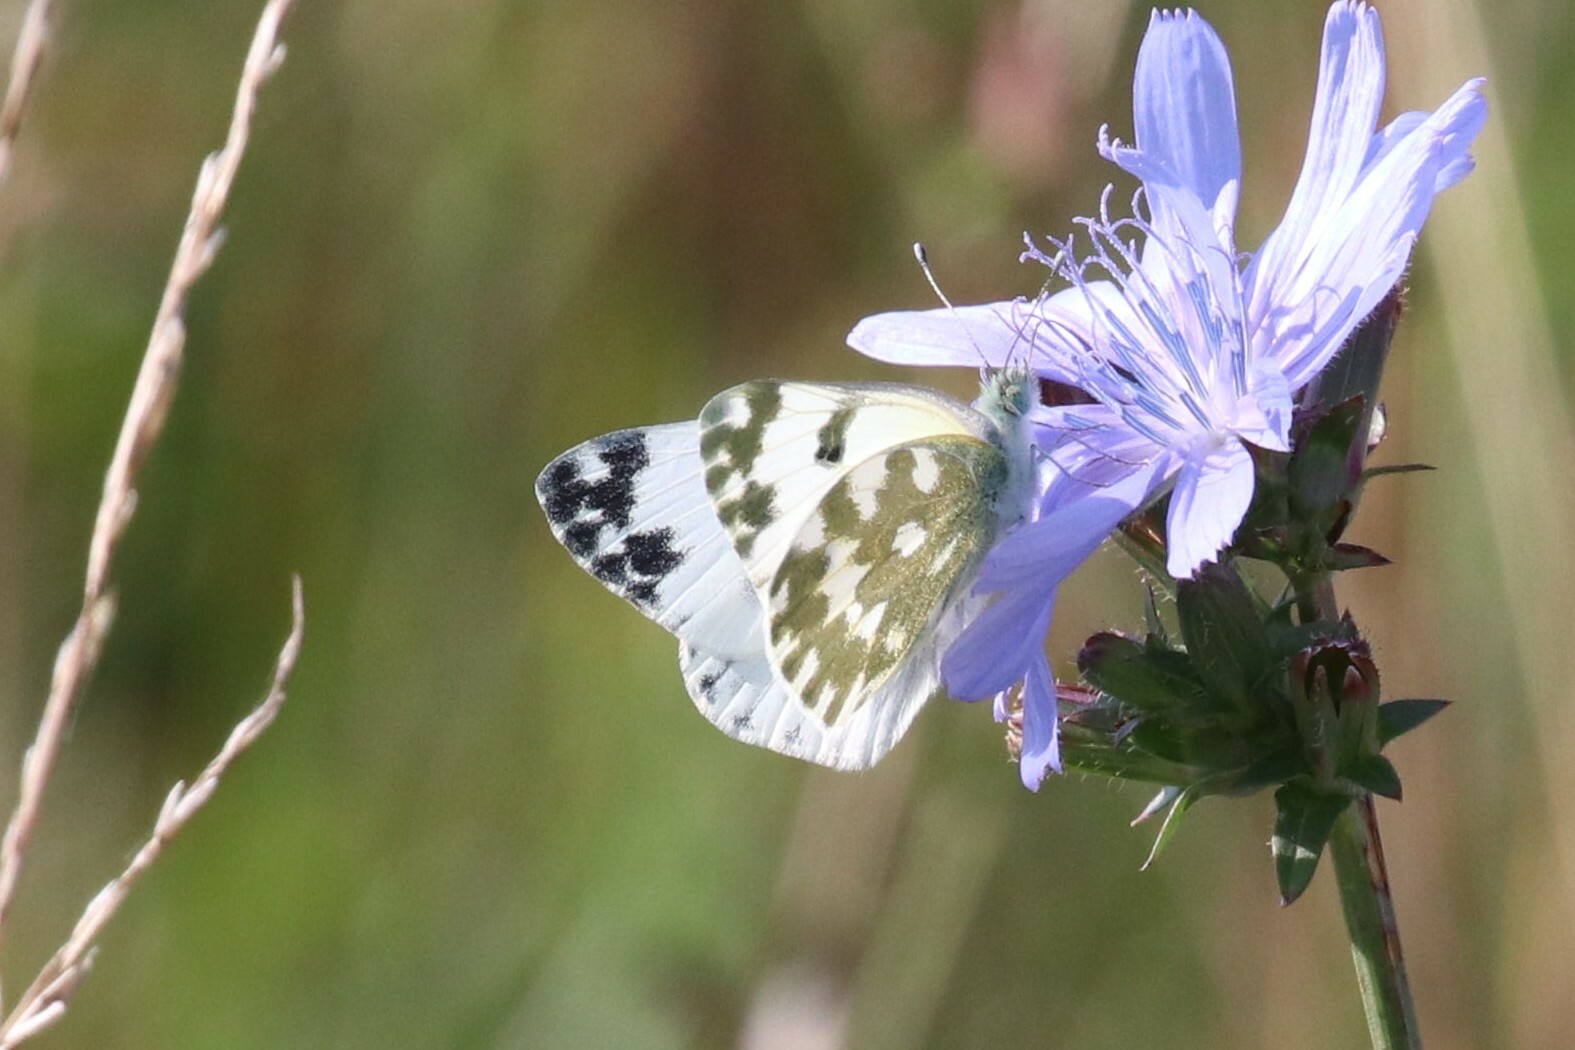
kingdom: Animalia
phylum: Arthropoda
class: Insecta
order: Lepidoptera
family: Pieridae
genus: Pontia
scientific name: Pontia edusa
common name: Eastern bath white
